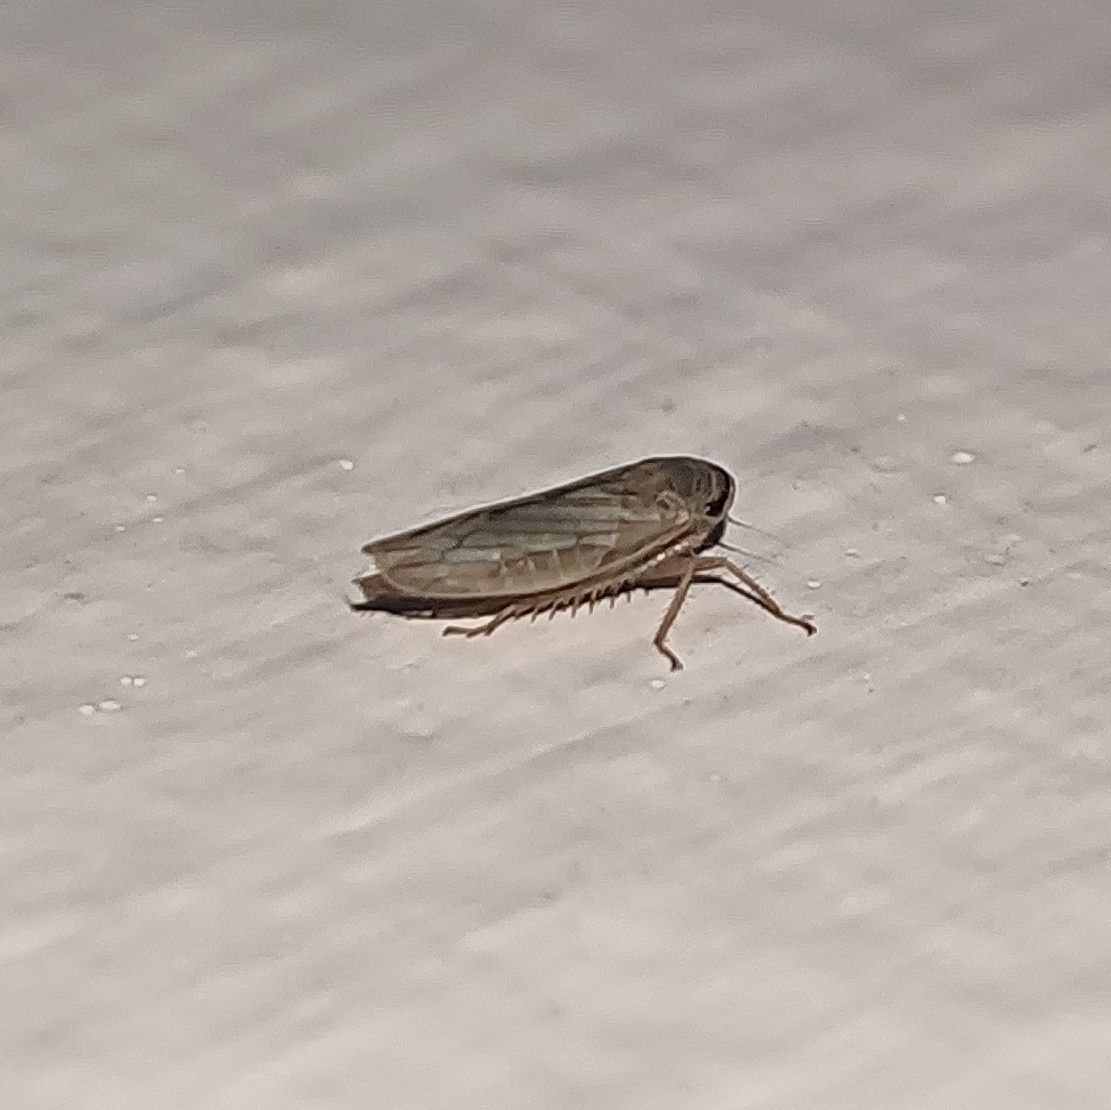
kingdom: Animalia
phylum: Arthropoda
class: Insecta
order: Hemiptera
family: Cicadellidae
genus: Exitianus
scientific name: Exitianus indicus
